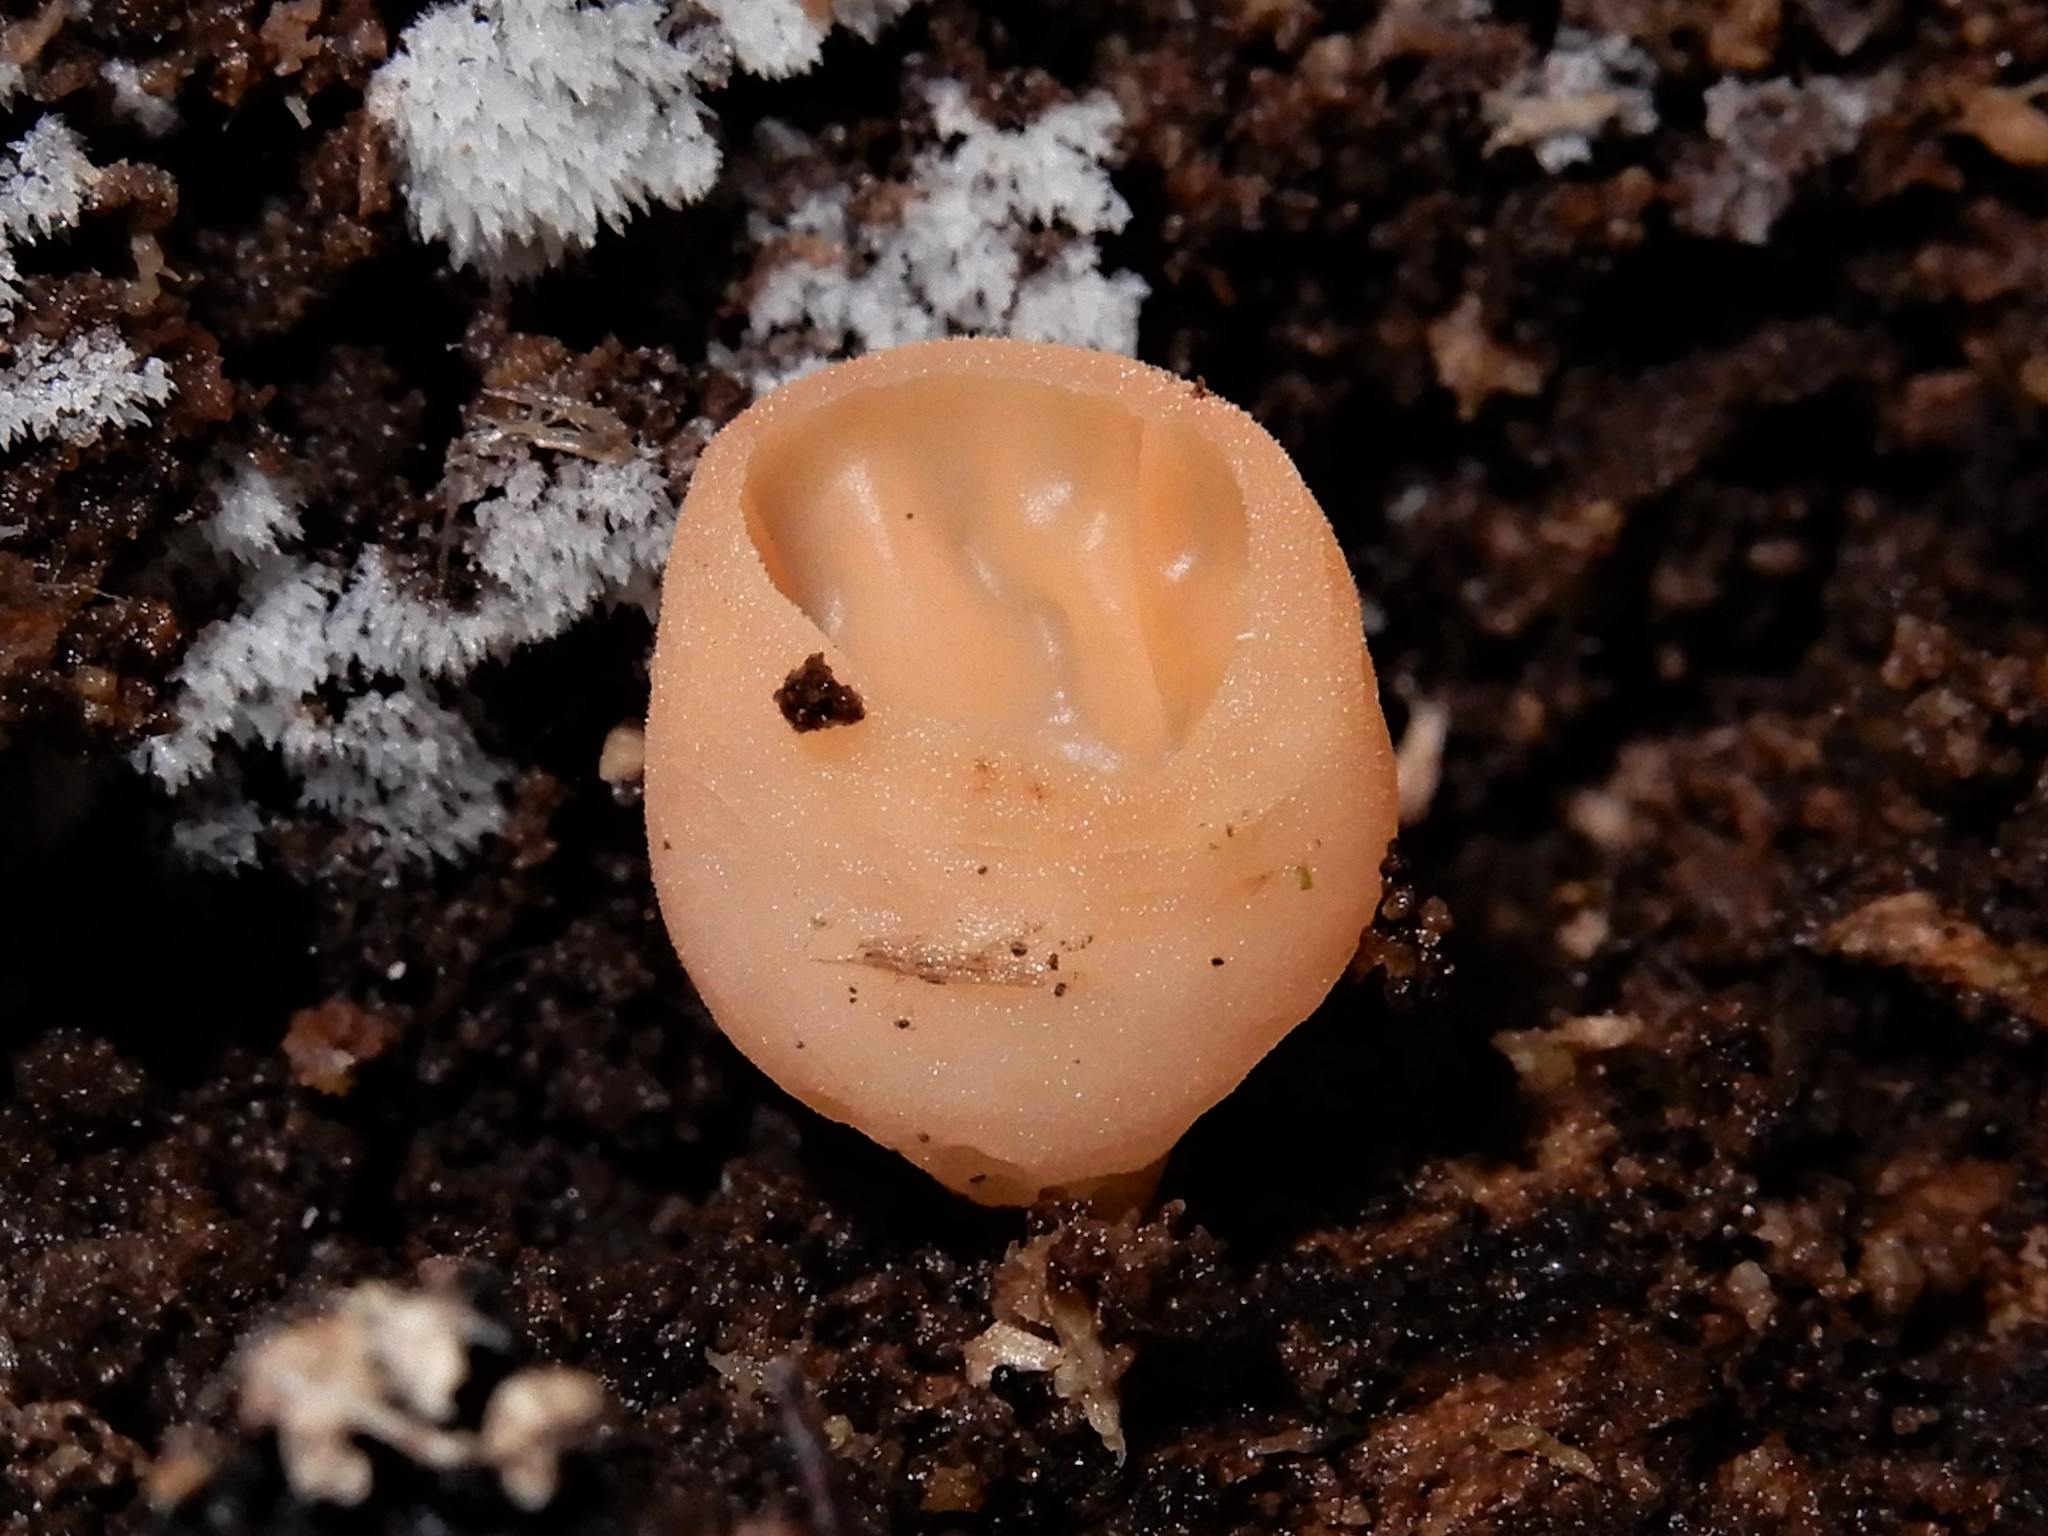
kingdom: Fungi
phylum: Ascomycota
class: Pezizomycetes
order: Pezizales
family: Sarcoscyphaceae
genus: Cookeina
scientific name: Cookeina colensoi
